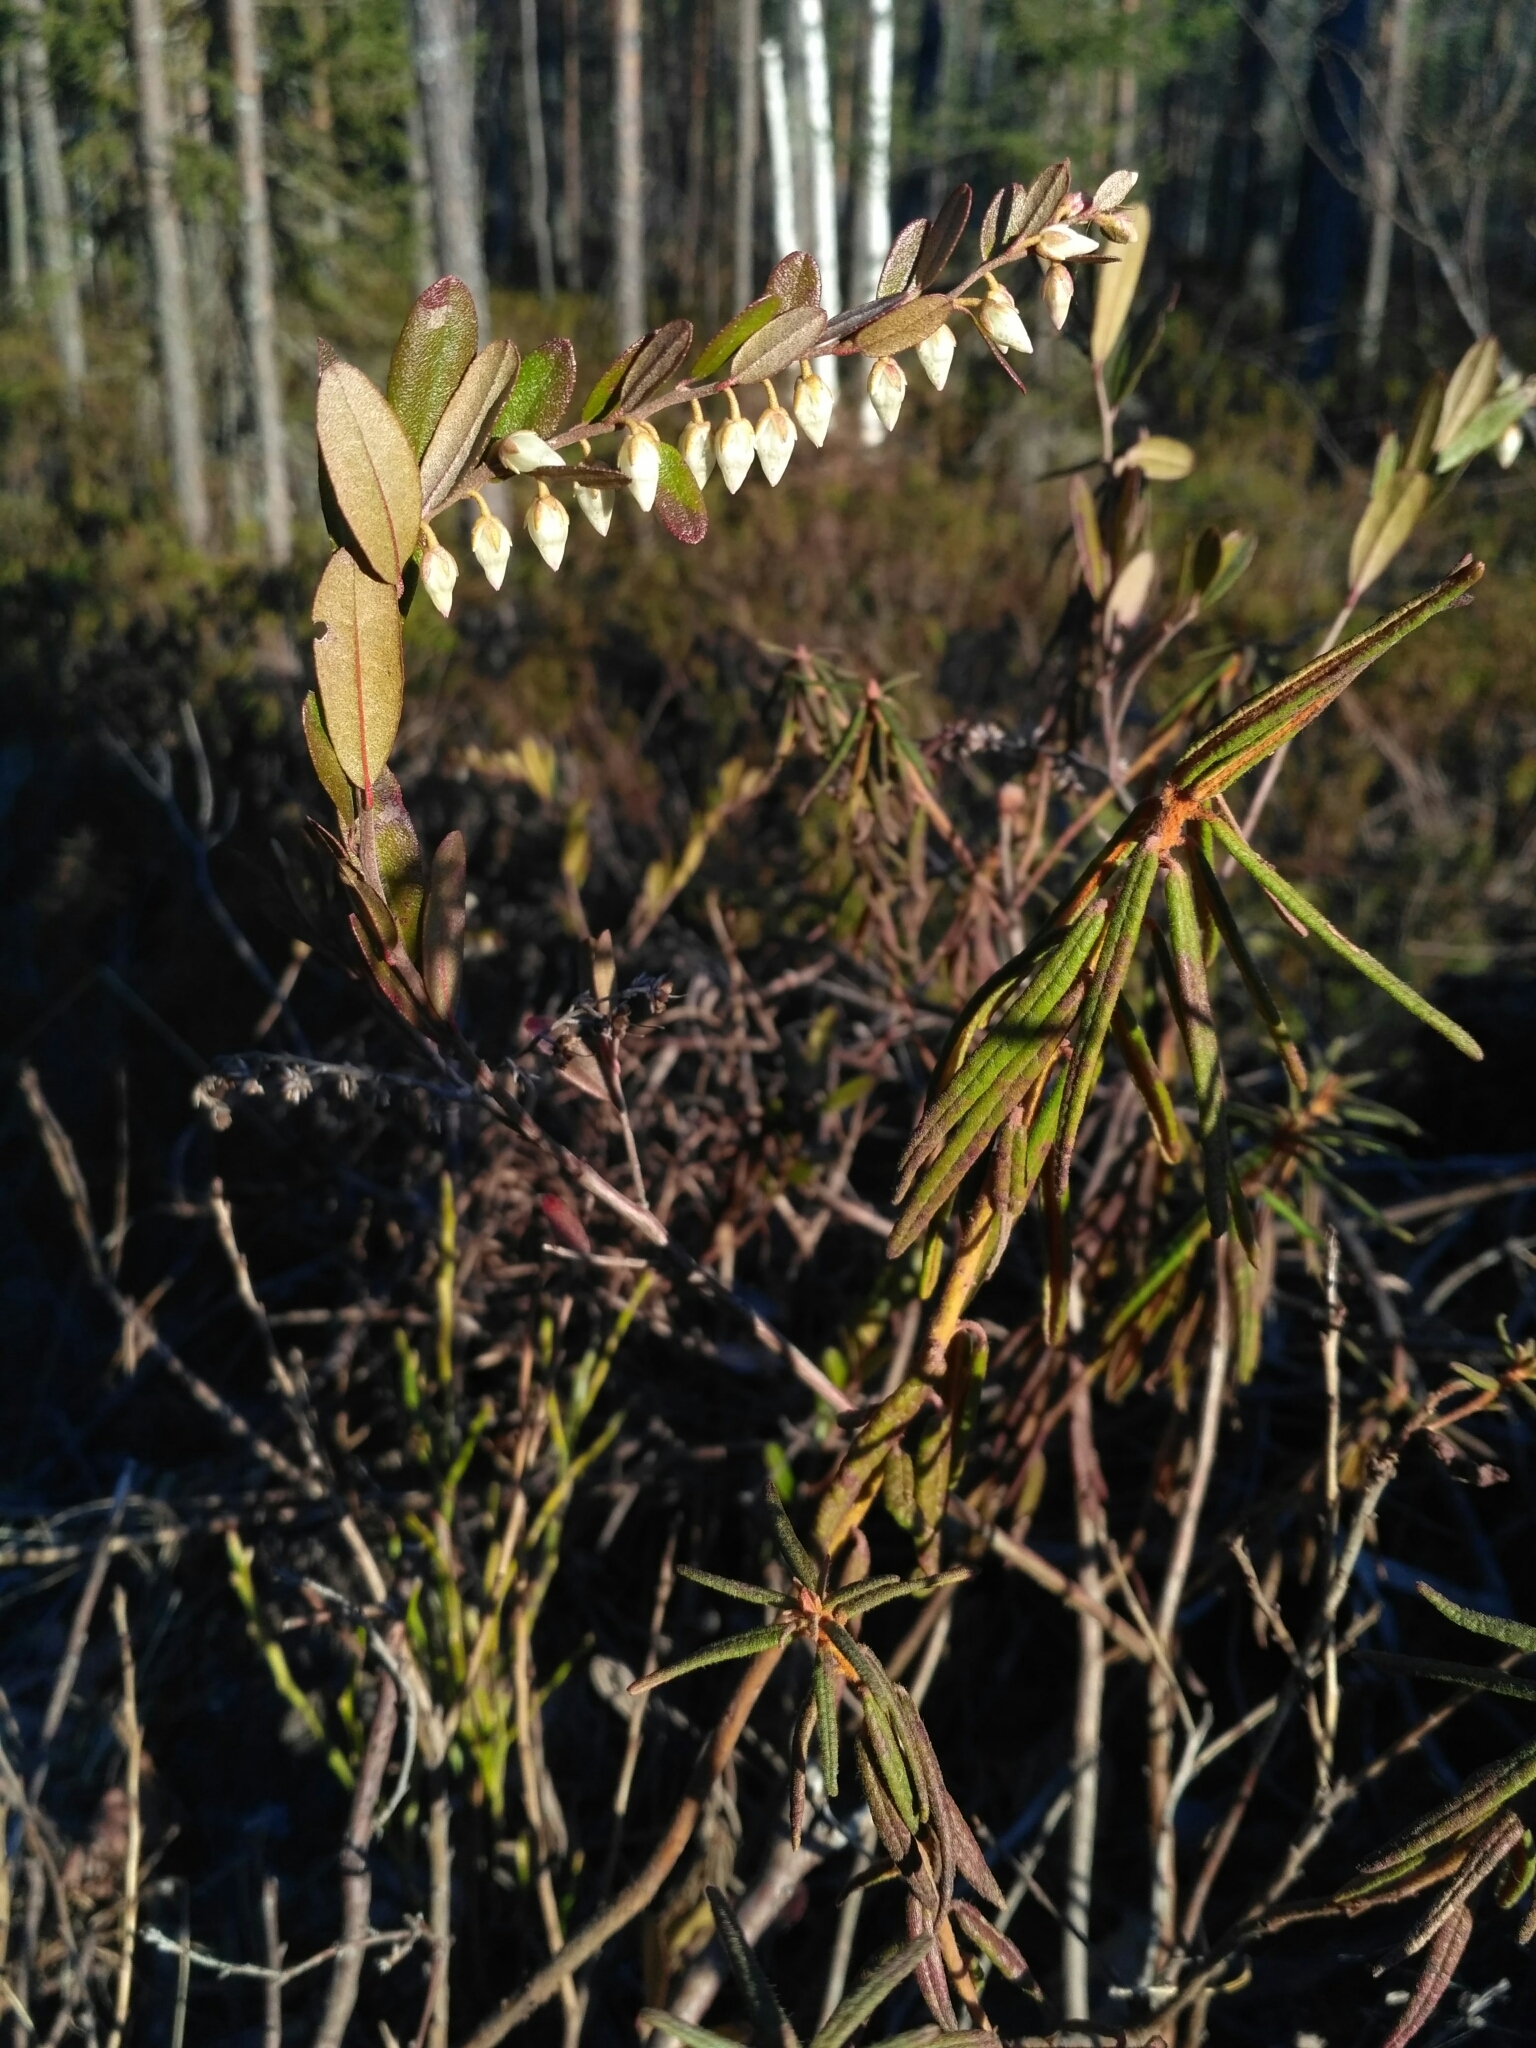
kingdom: Plantae
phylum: Tracheophyta
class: Magnoliopsida
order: Ericales
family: Ericaceae
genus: Chamaedaphne
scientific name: Chamaedaphne calyculata
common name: Leatherleaf
